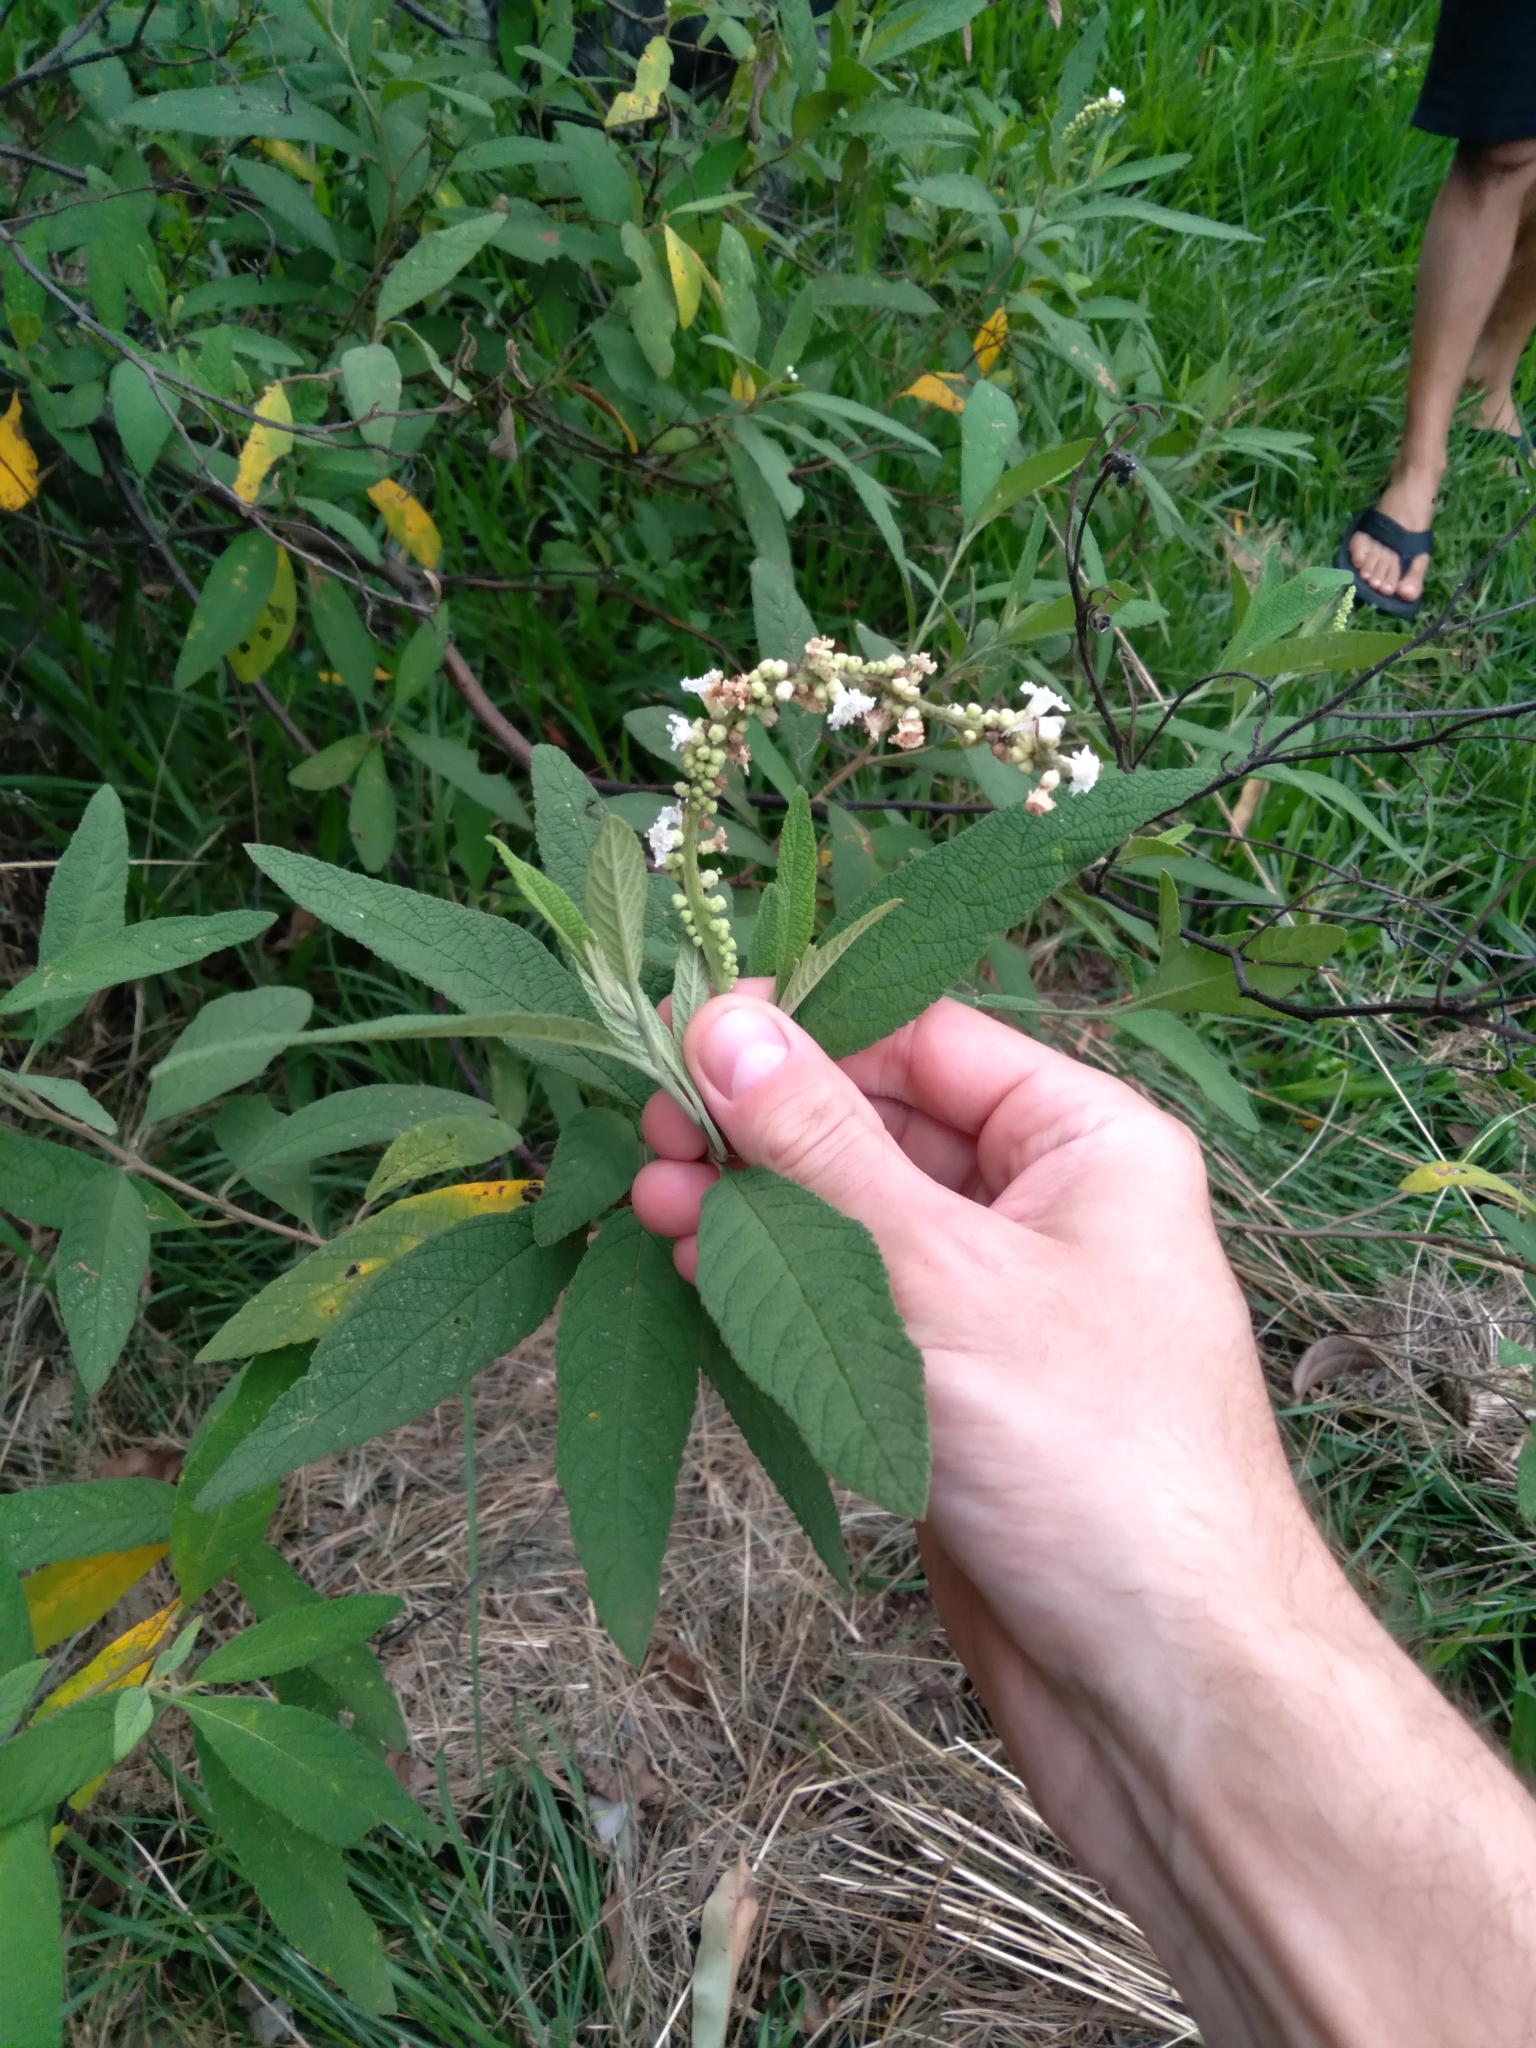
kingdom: Plantae
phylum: Tracheophyta
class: Magnoliopsida
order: Boraginales
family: Cordiaceae
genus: Varronia
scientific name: Varronia curassavica
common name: Black sage
